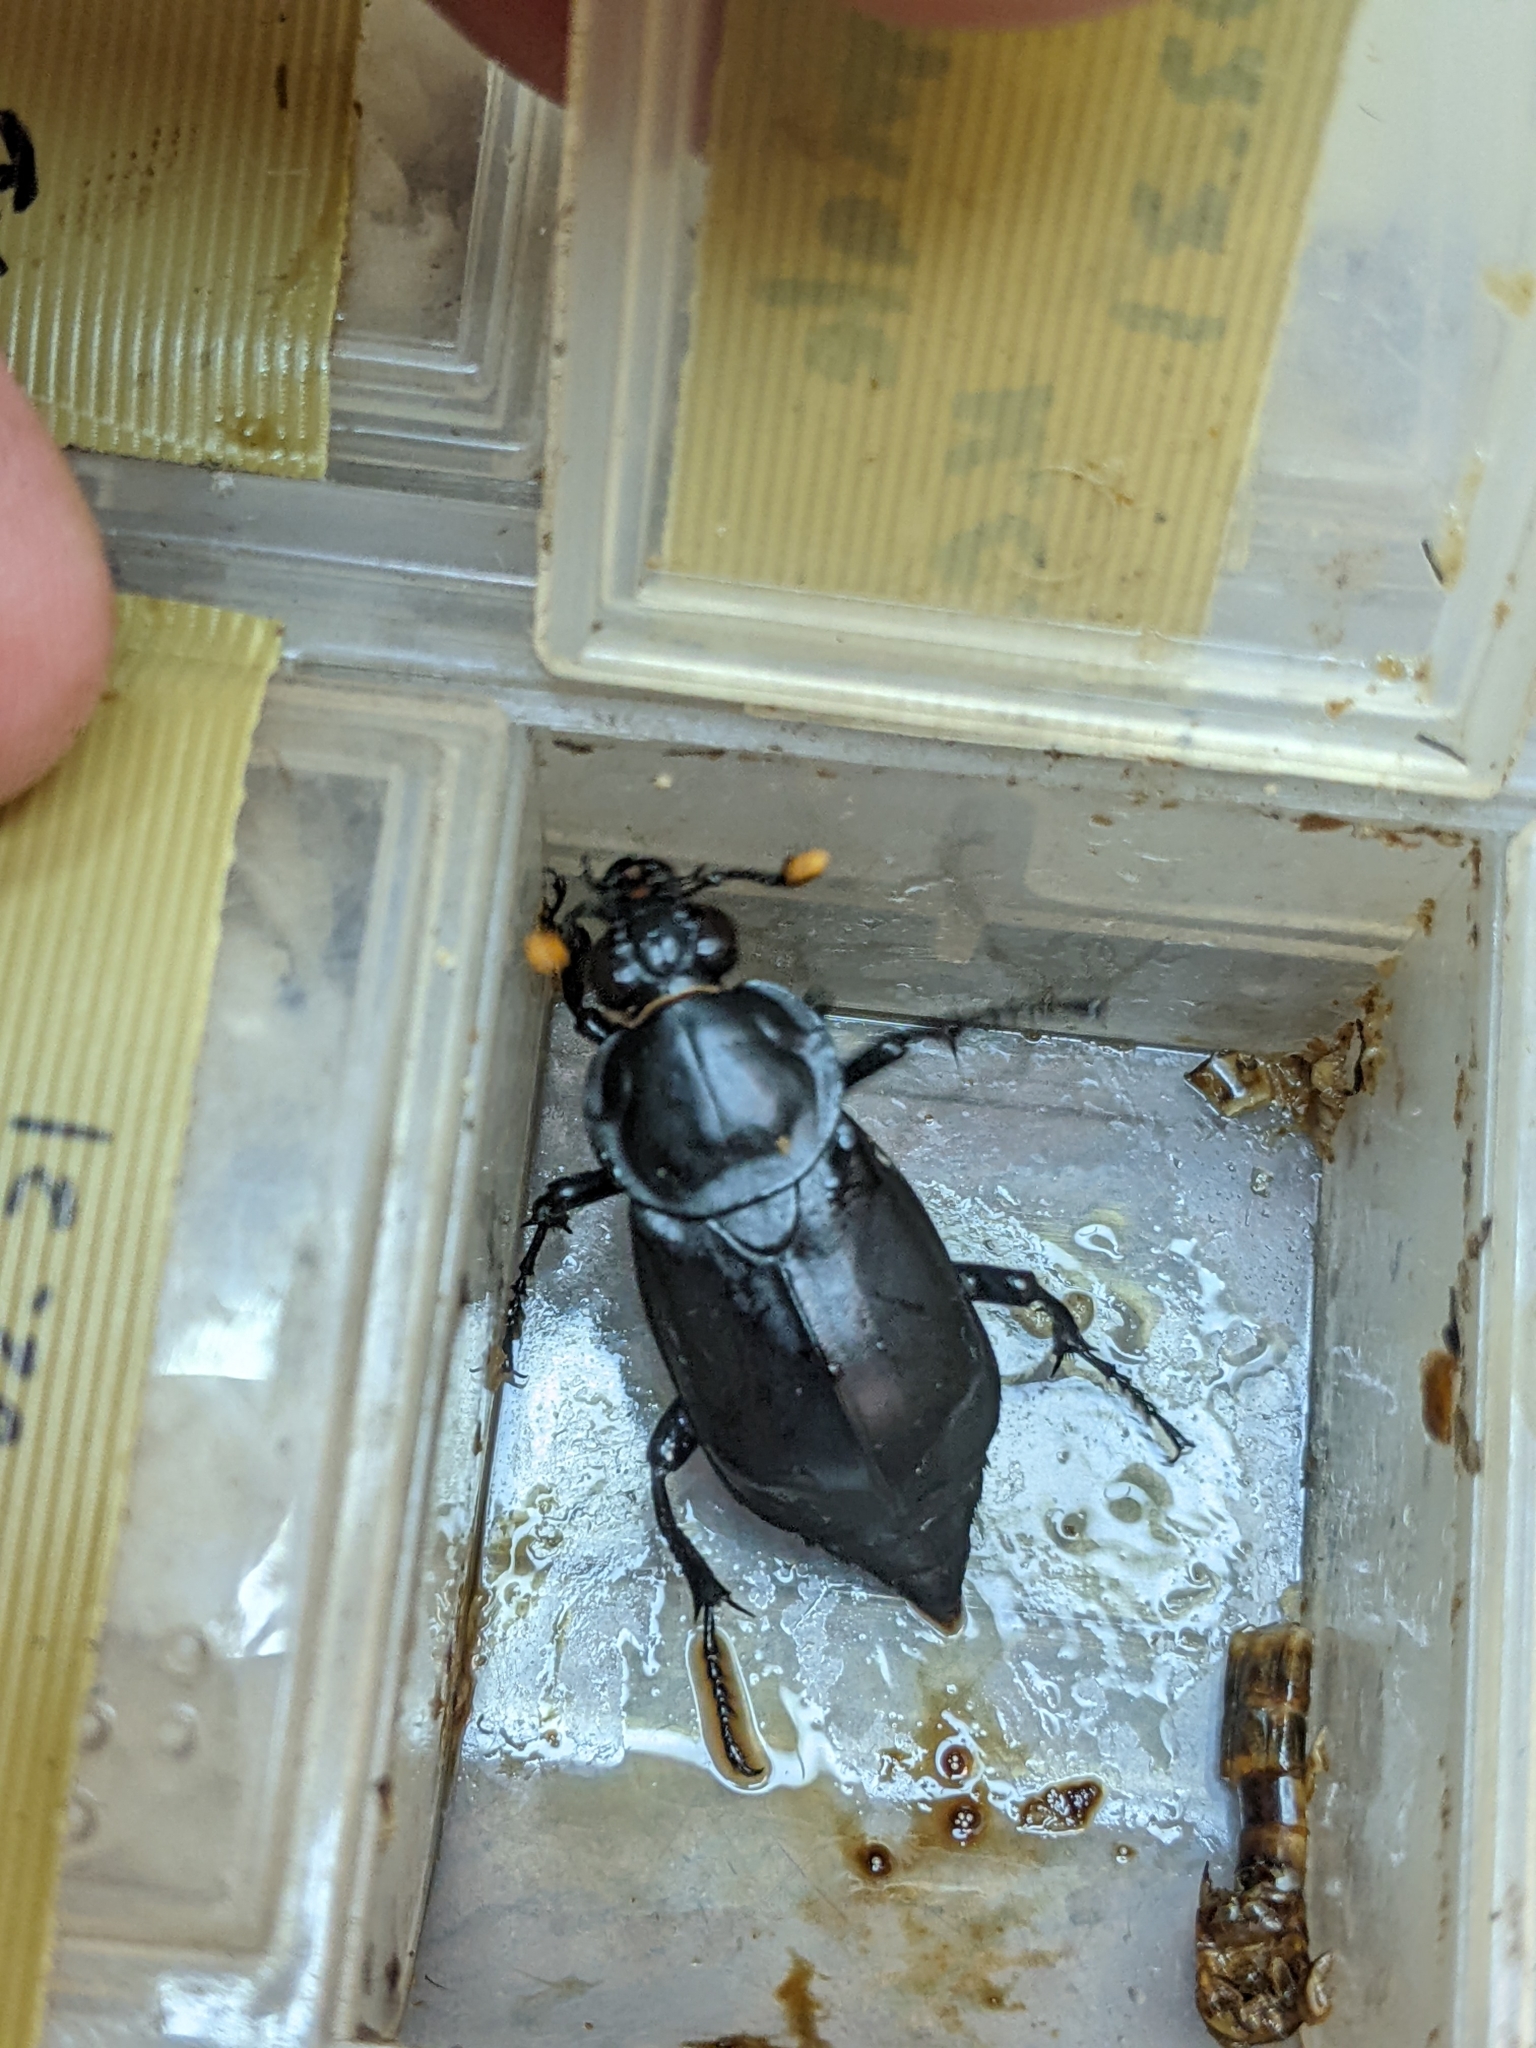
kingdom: Animalia
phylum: Arthropoda
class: Insecta
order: Coleoptera
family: Staphylinidae
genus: Nicrophorus
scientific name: Nicrophorus concolor
